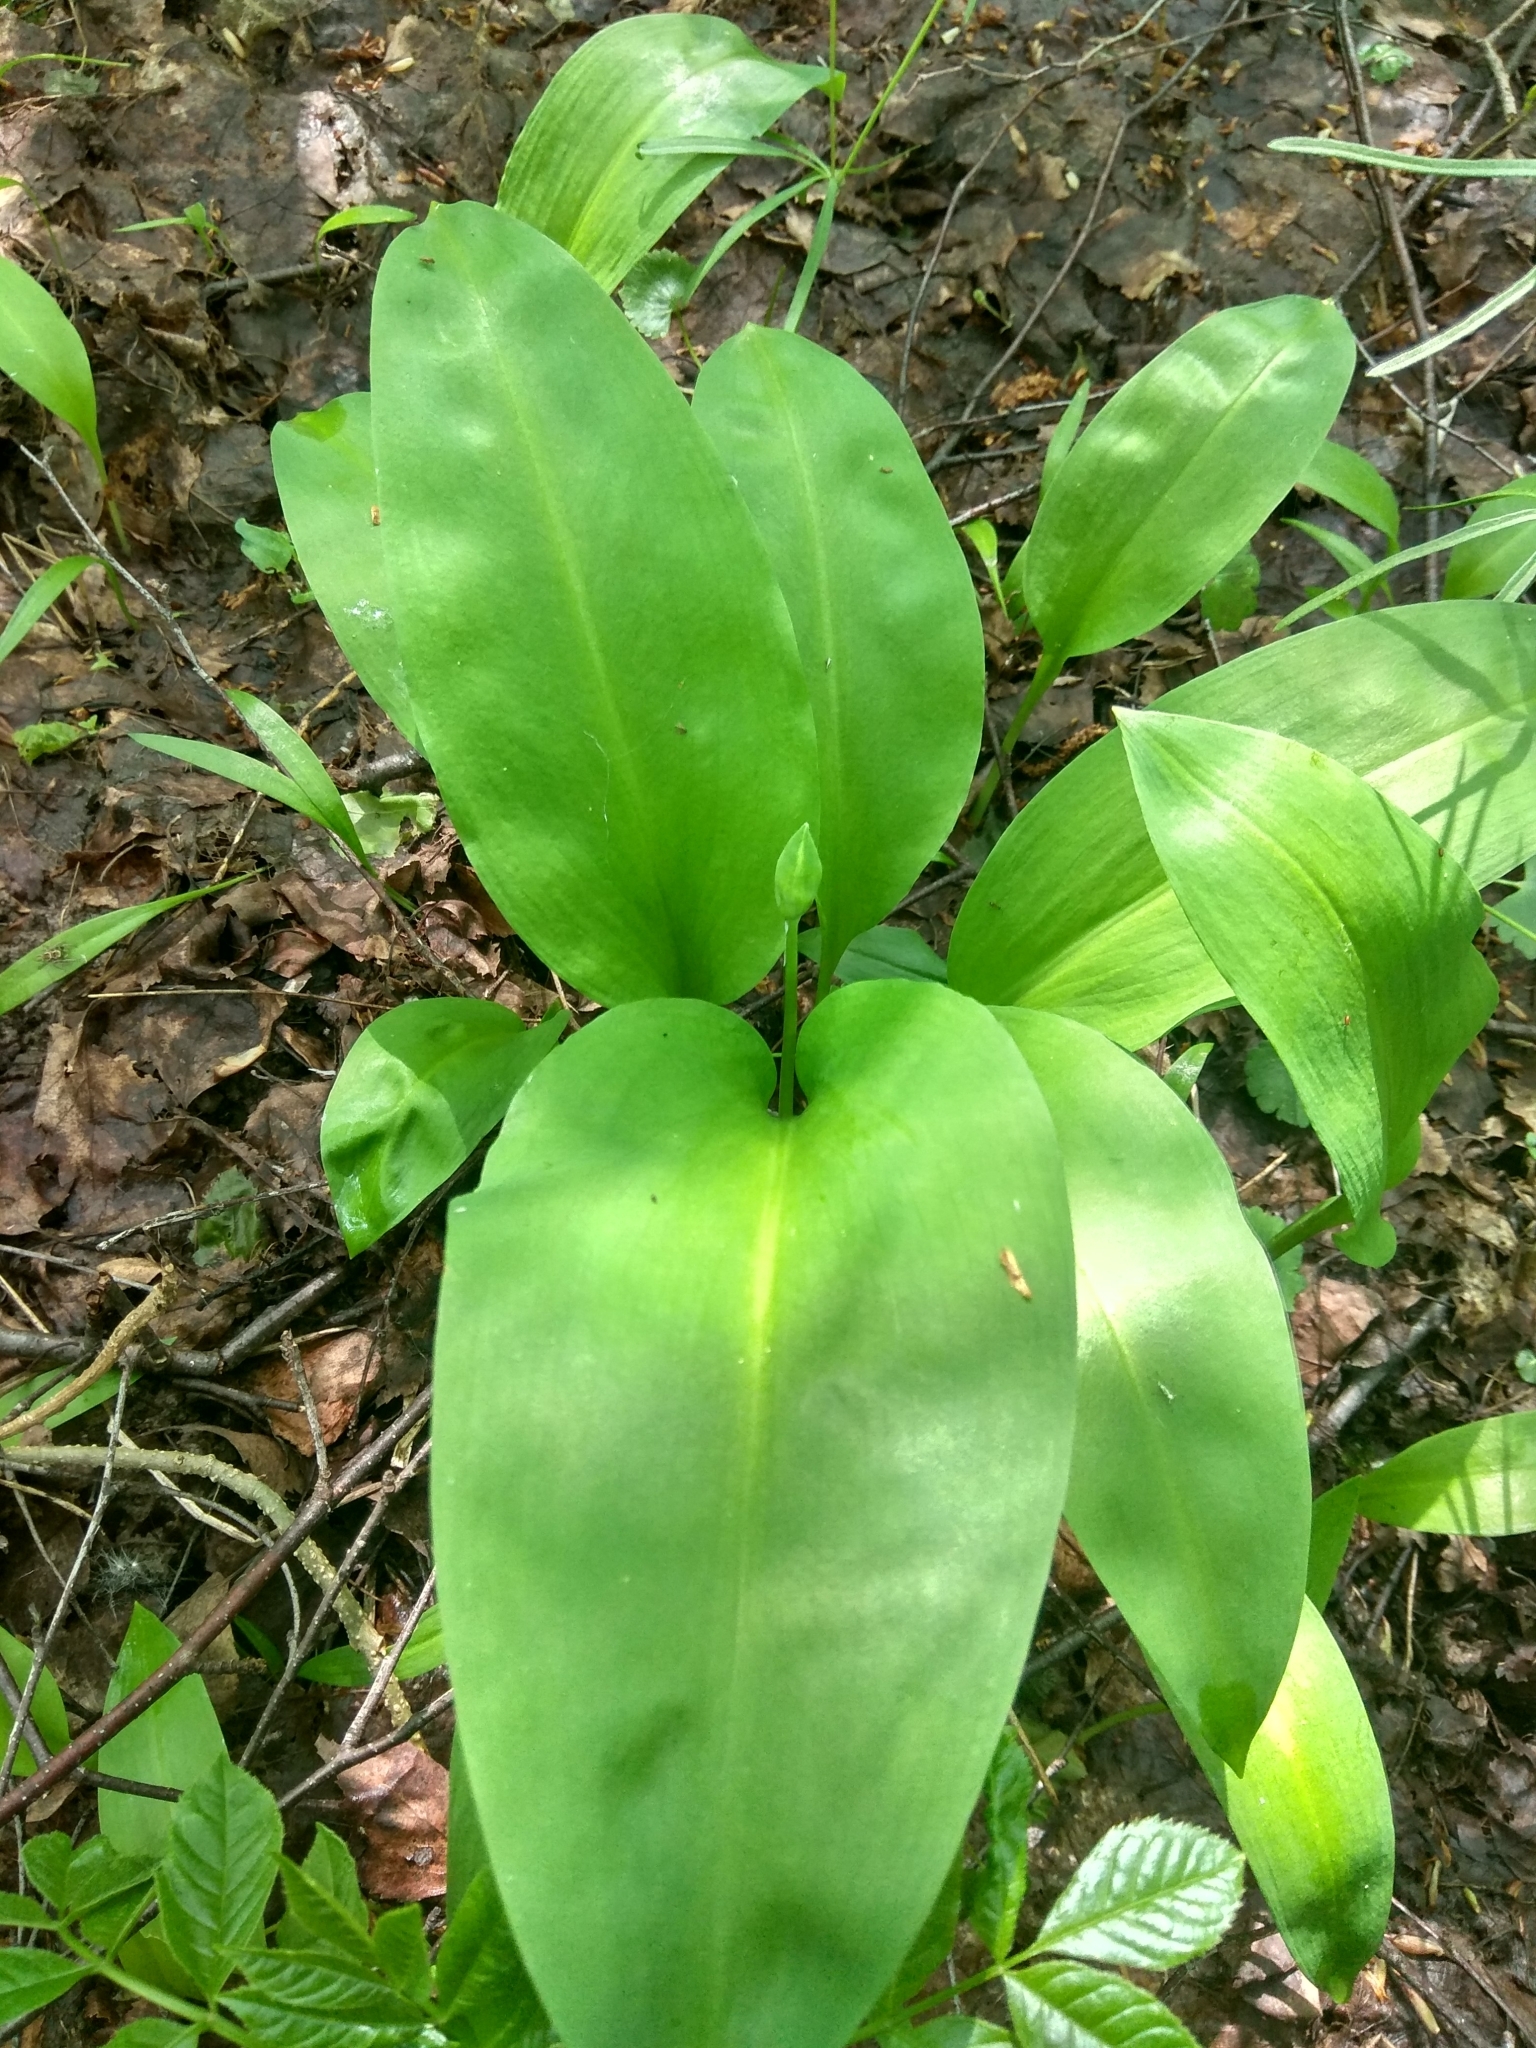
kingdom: Plantae
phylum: Tracheophyta
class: Liliopsida
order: Asparagales
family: Amaryllidaceae
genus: Allium
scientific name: Allium ursinum
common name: Ramsons
